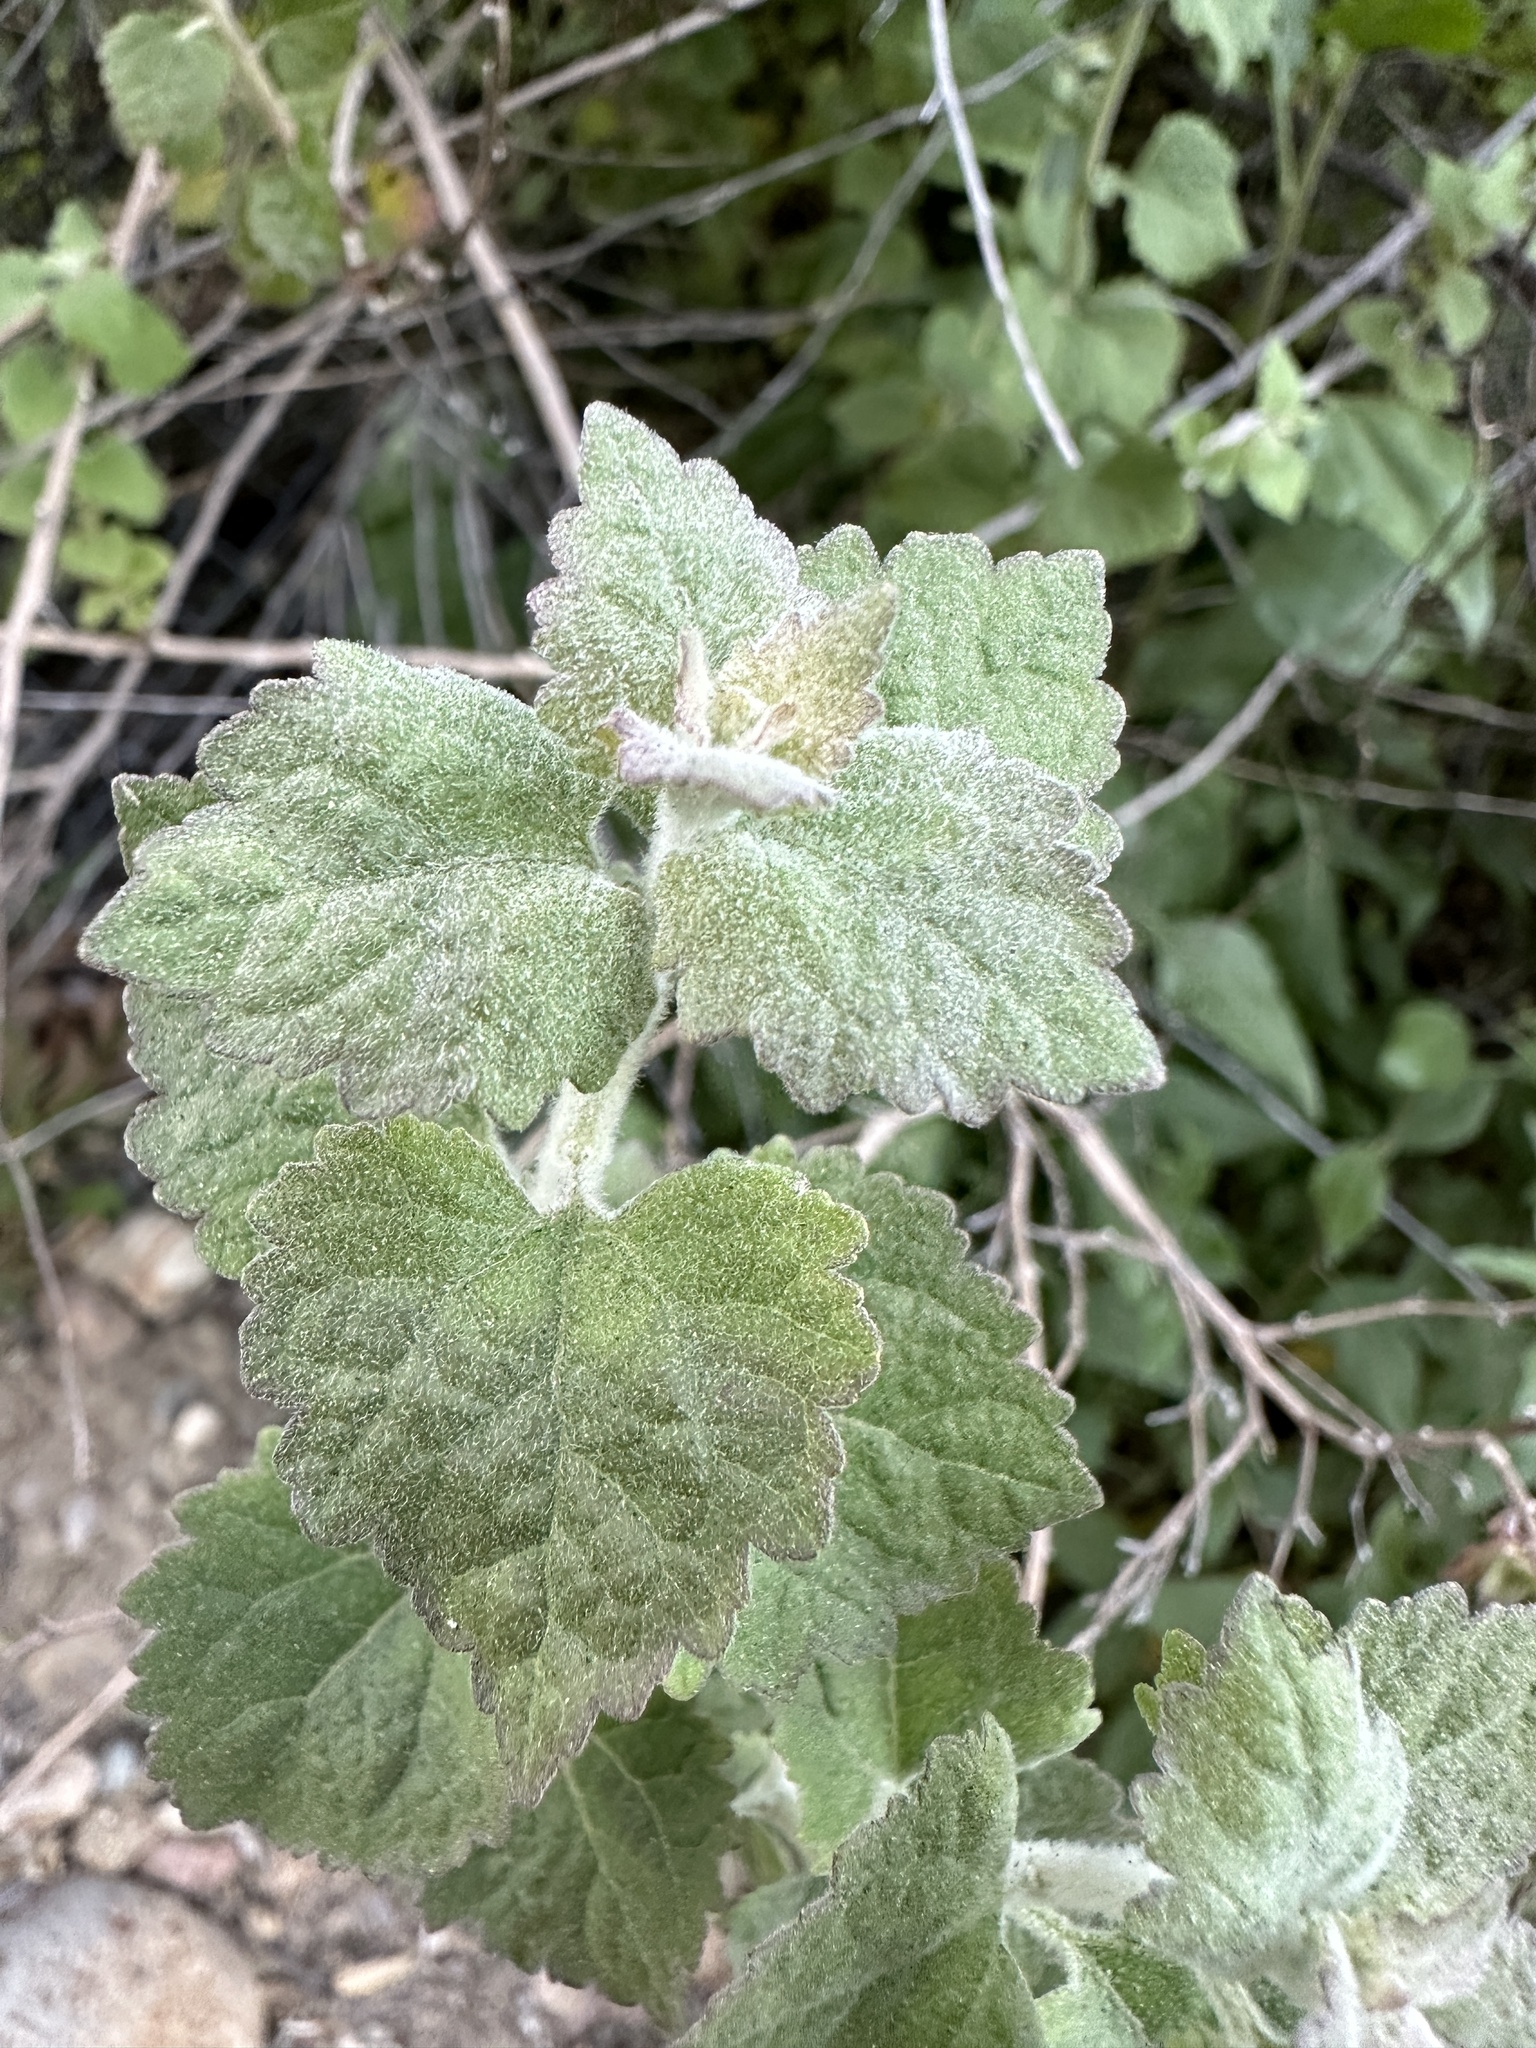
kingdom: Plantae
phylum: Tracheophyta
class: Magnoliopsida
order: Asterales
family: Asteraceae
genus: Brickellia
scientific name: Brickellia californica
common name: California brickellbush
